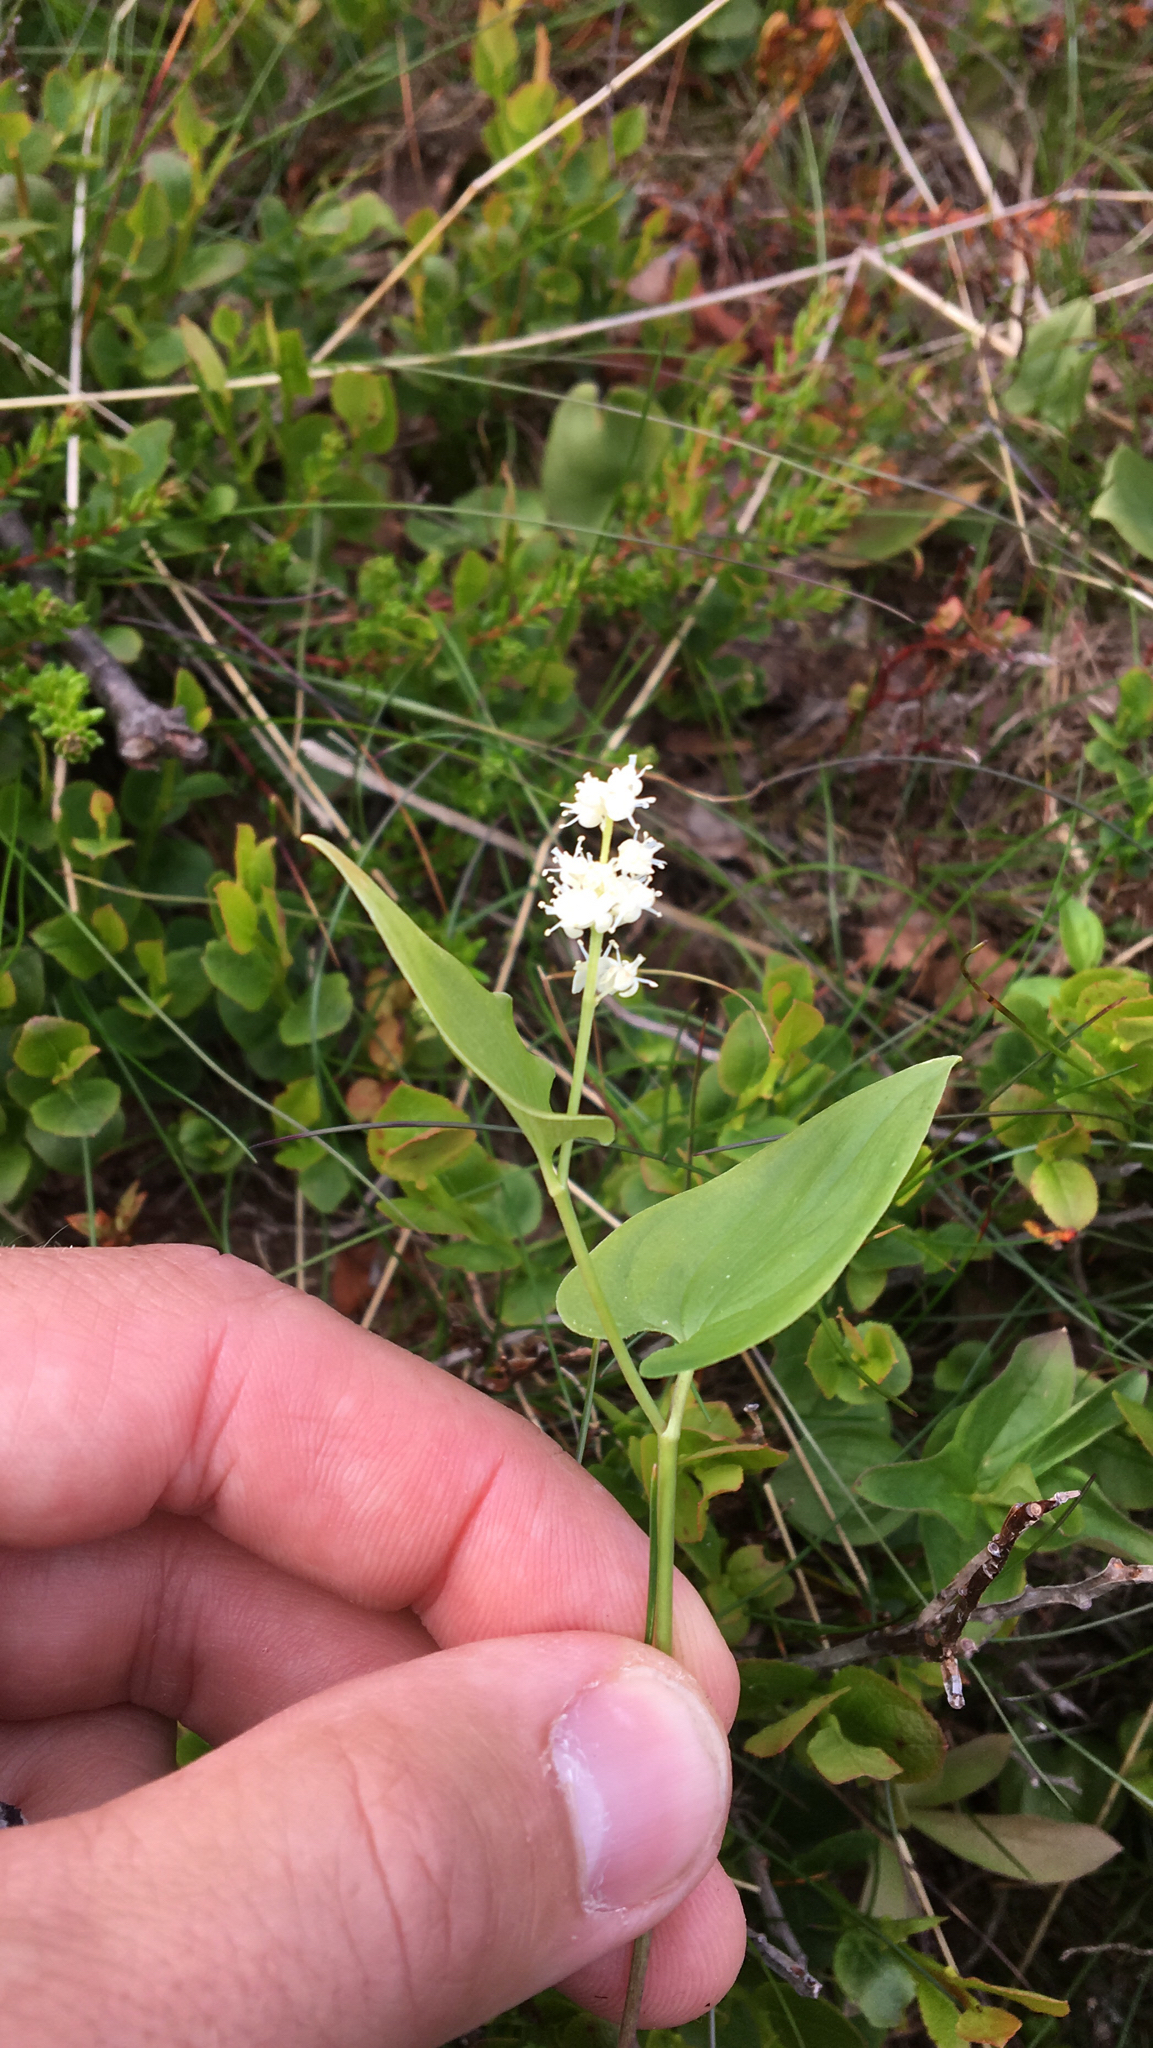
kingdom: Plantae
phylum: Tracheophyta
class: Liliopsida
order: Asparagales
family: Asparagaceae
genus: Maianthemum
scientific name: Maianthemum bifolium
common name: May lily
